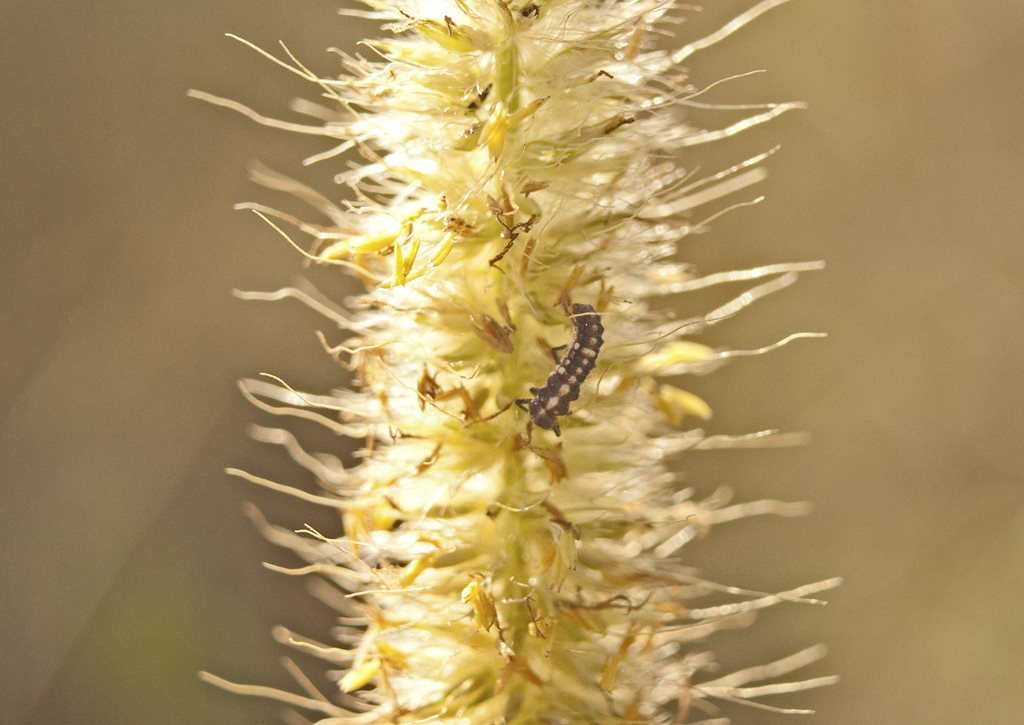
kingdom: Animalia
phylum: Arthropoda
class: Insecta
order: Coleoptera
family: Coccinellidae
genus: Micraspis
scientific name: Micraspis frenata
